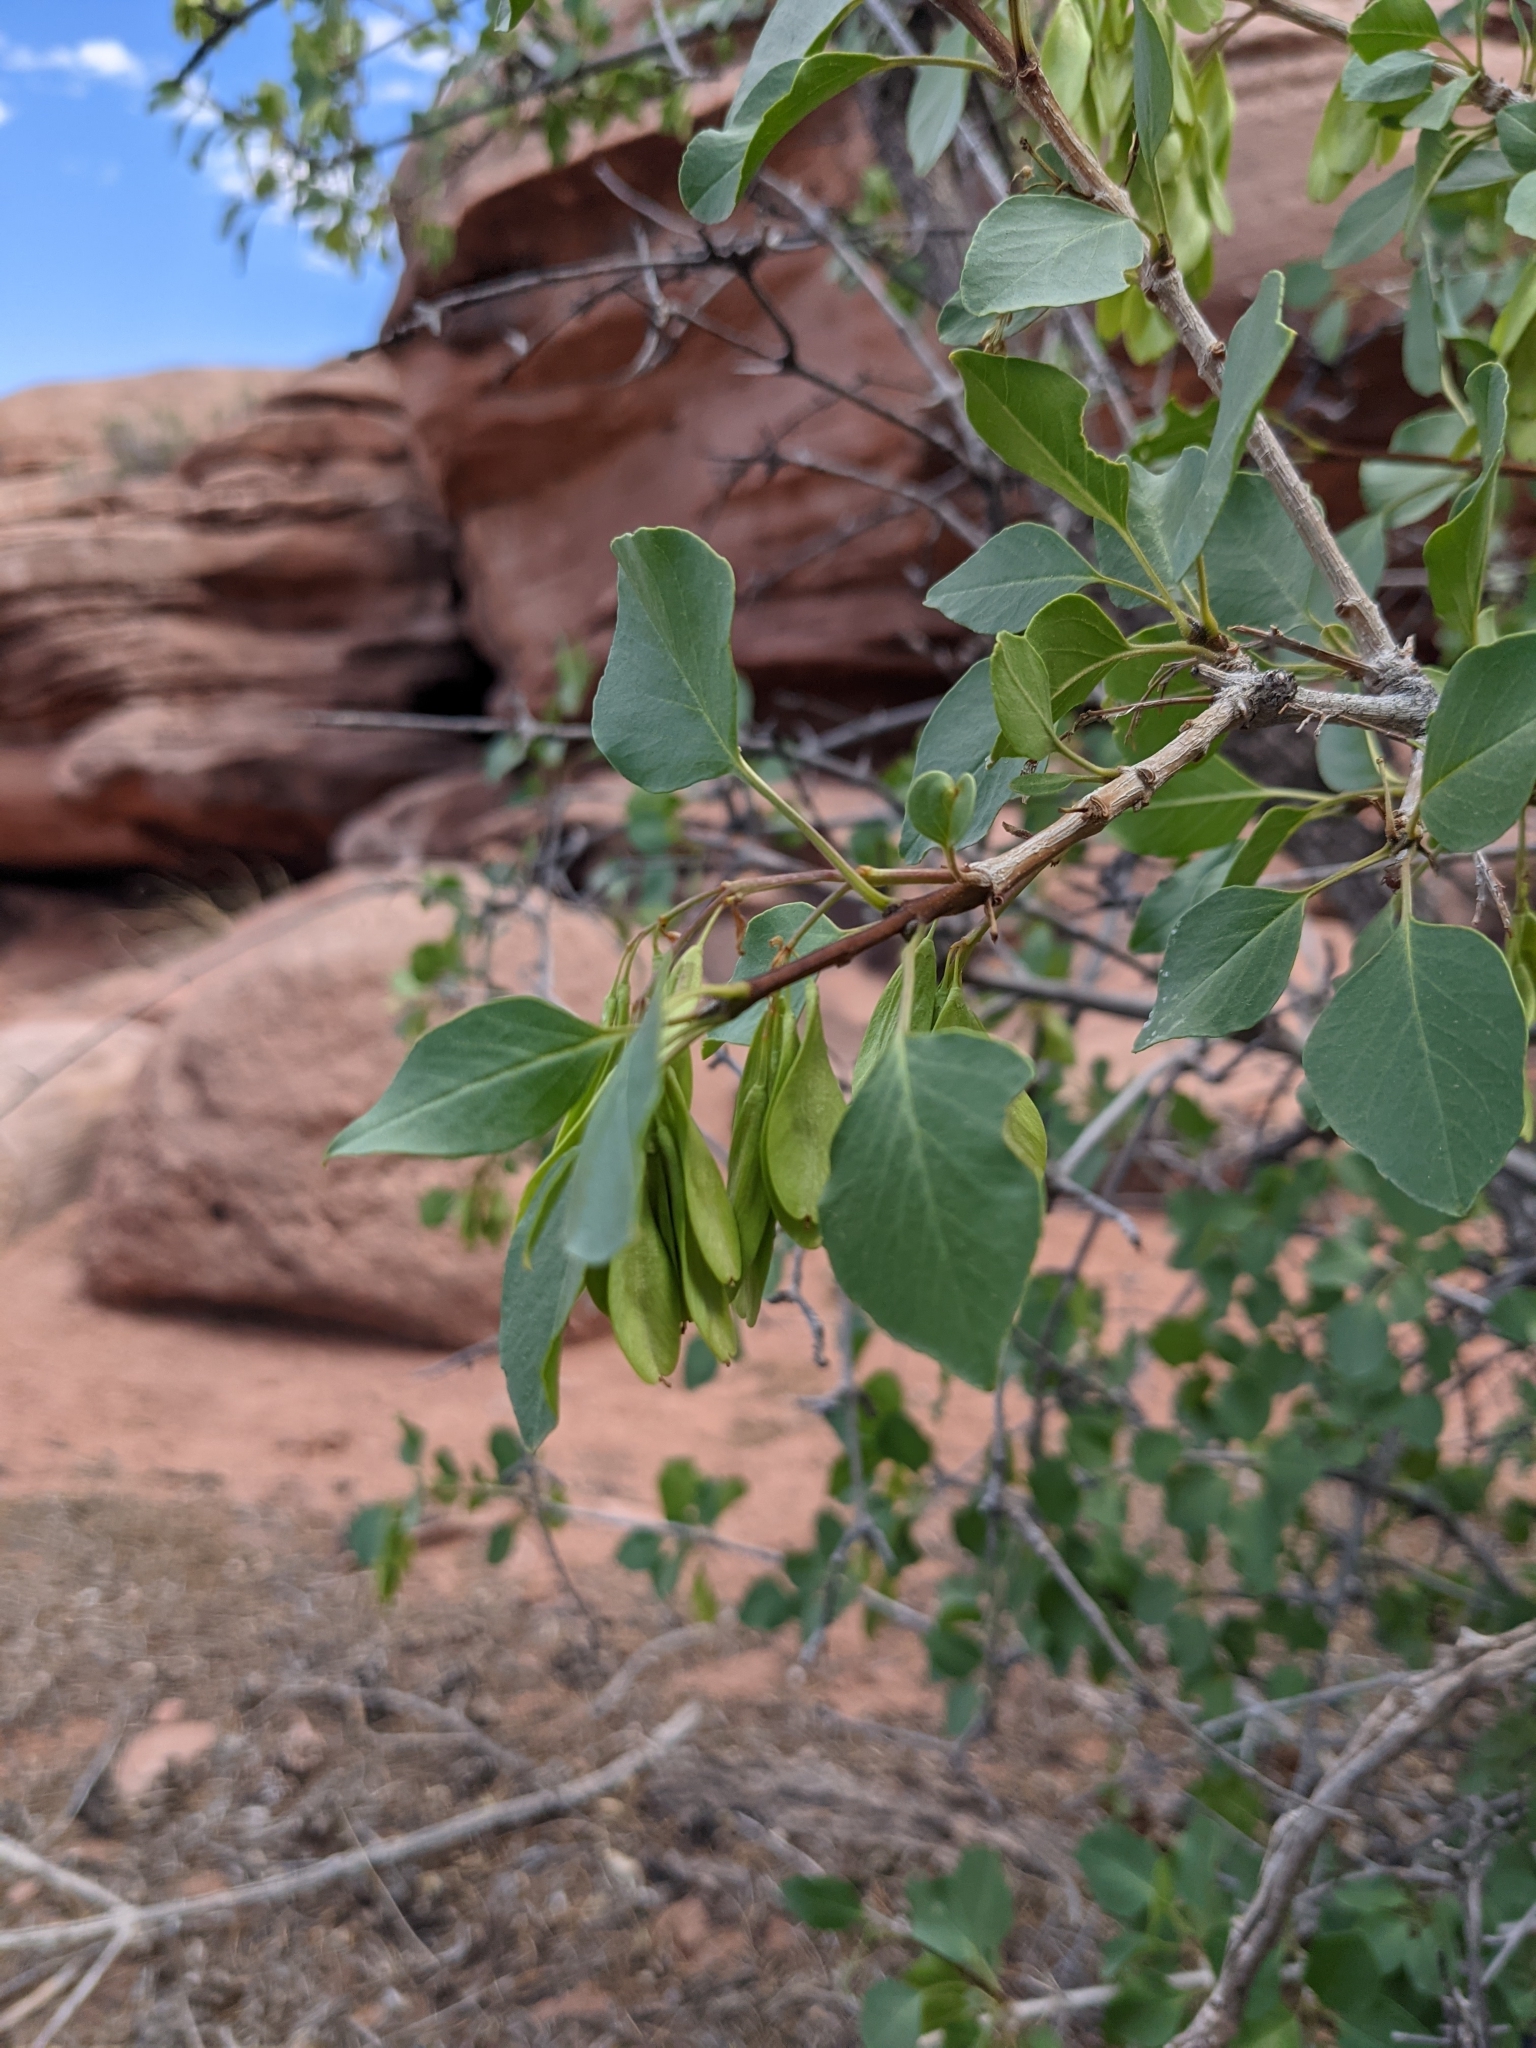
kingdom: Plantae
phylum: Tracheophyta
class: Magnoliopsida
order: Lamiales
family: Oleaceae
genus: Fraxinus
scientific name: Fraxinus anomala
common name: Utah ash
